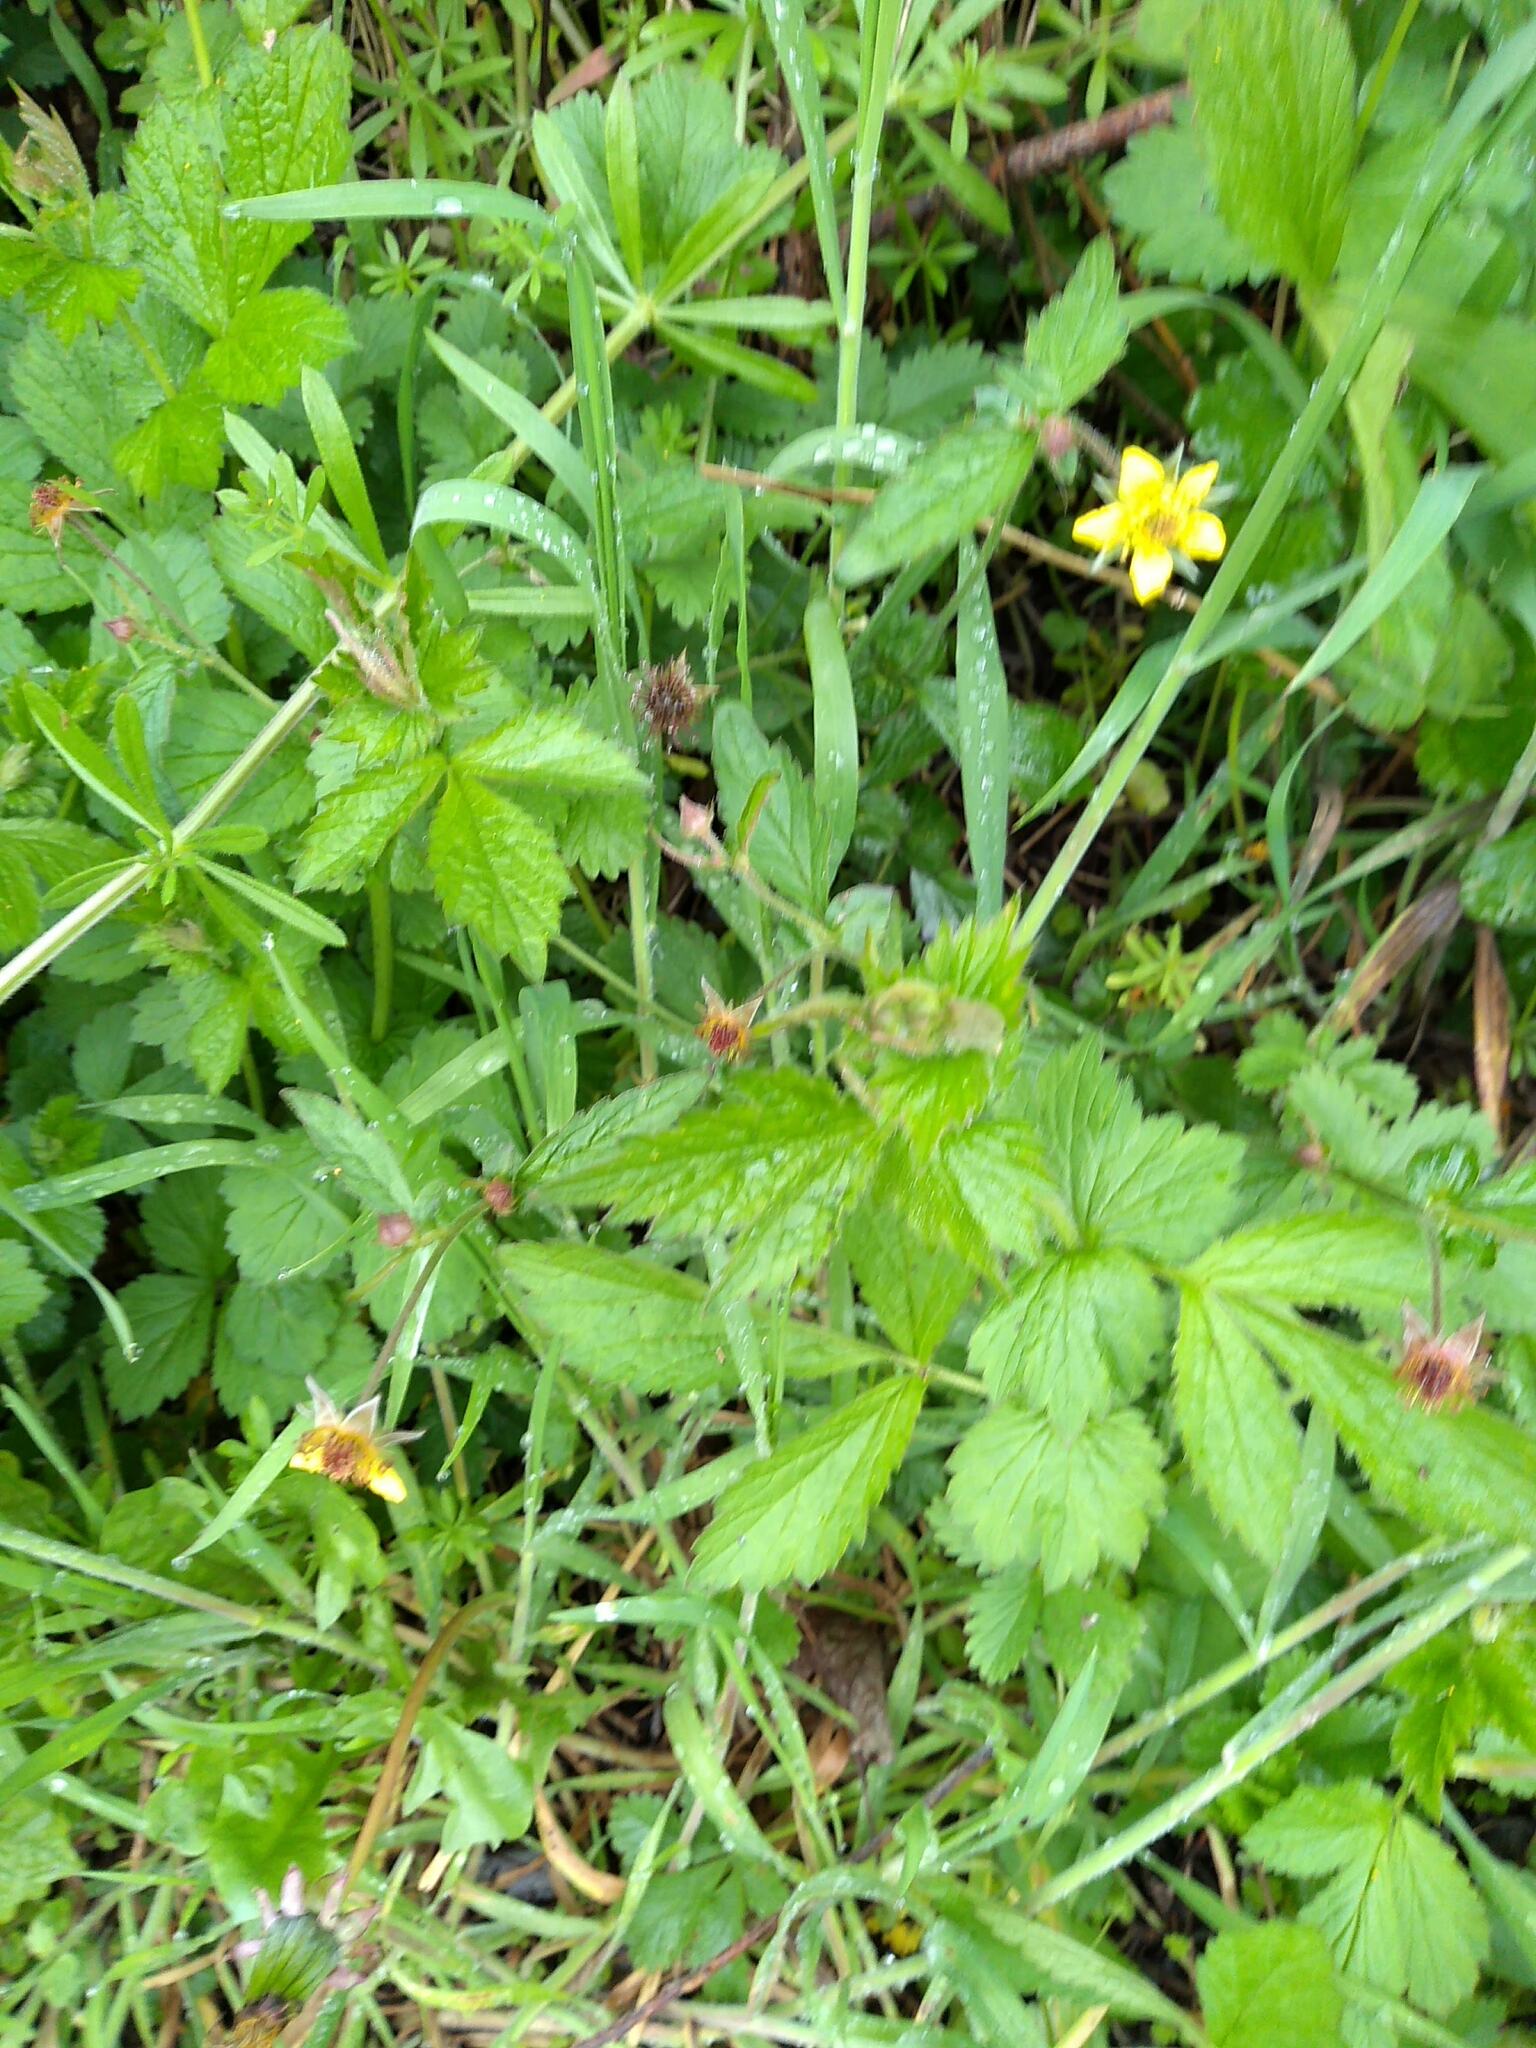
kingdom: Plantae
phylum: Tracheophyta
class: Magnoliopsida
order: Rosales
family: Rosaceae
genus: Geum
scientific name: Geum urbanum
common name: Wood avens
